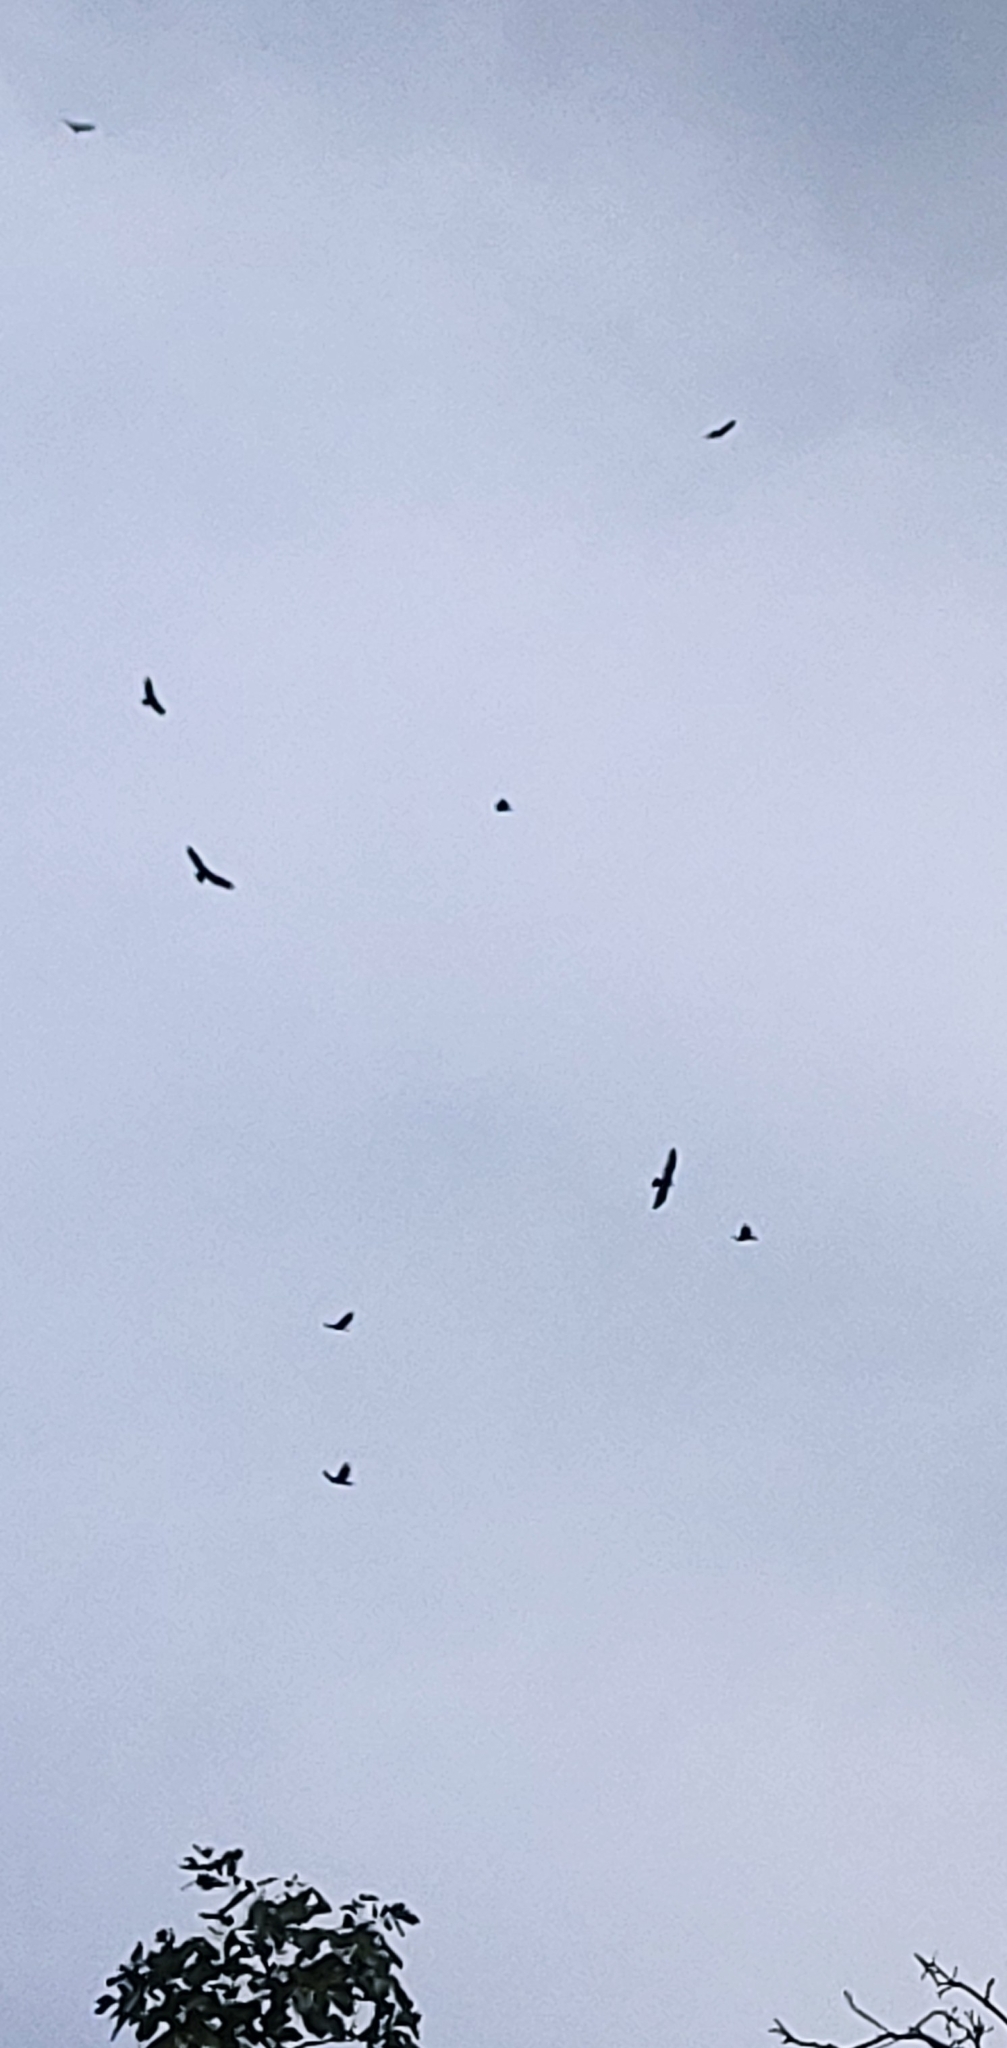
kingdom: Animalia
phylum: Chordata
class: Aves
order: Accipitriformes
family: Cathartidae
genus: Cathartes
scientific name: Cathartes aura
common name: Turkey vulture
